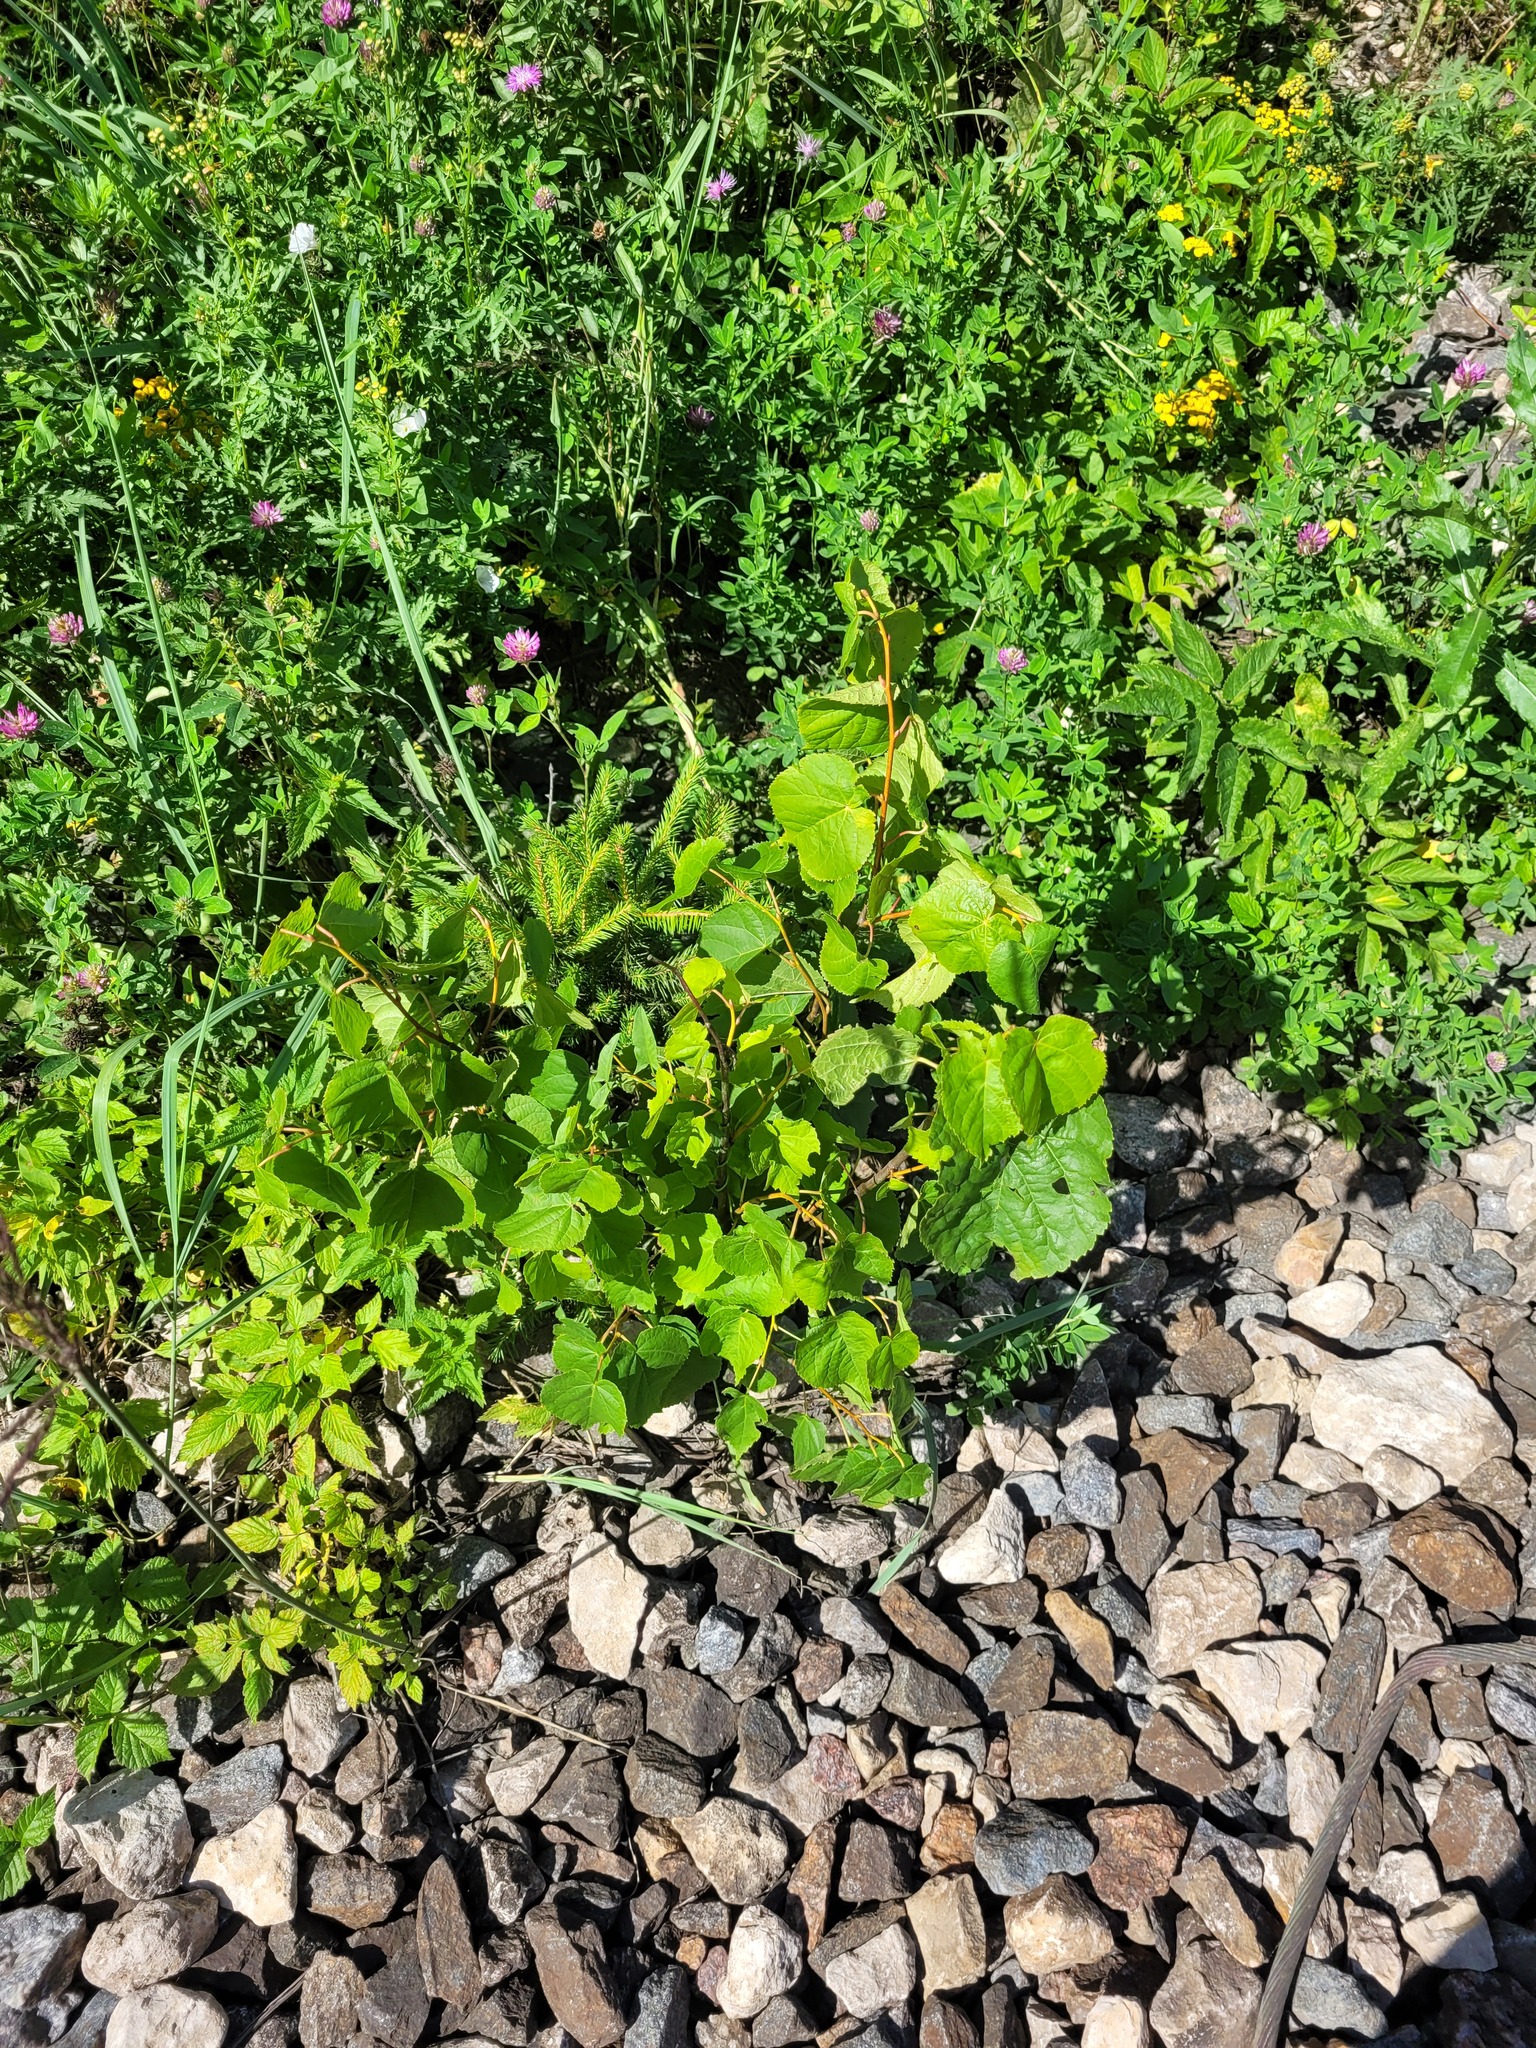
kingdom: Plantae
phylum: Tracheophyta
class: Magnoliopsida
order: Malvales
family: Malvaceae
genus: Tilia
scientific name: Tilia cordata
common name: Small-leaved lime
